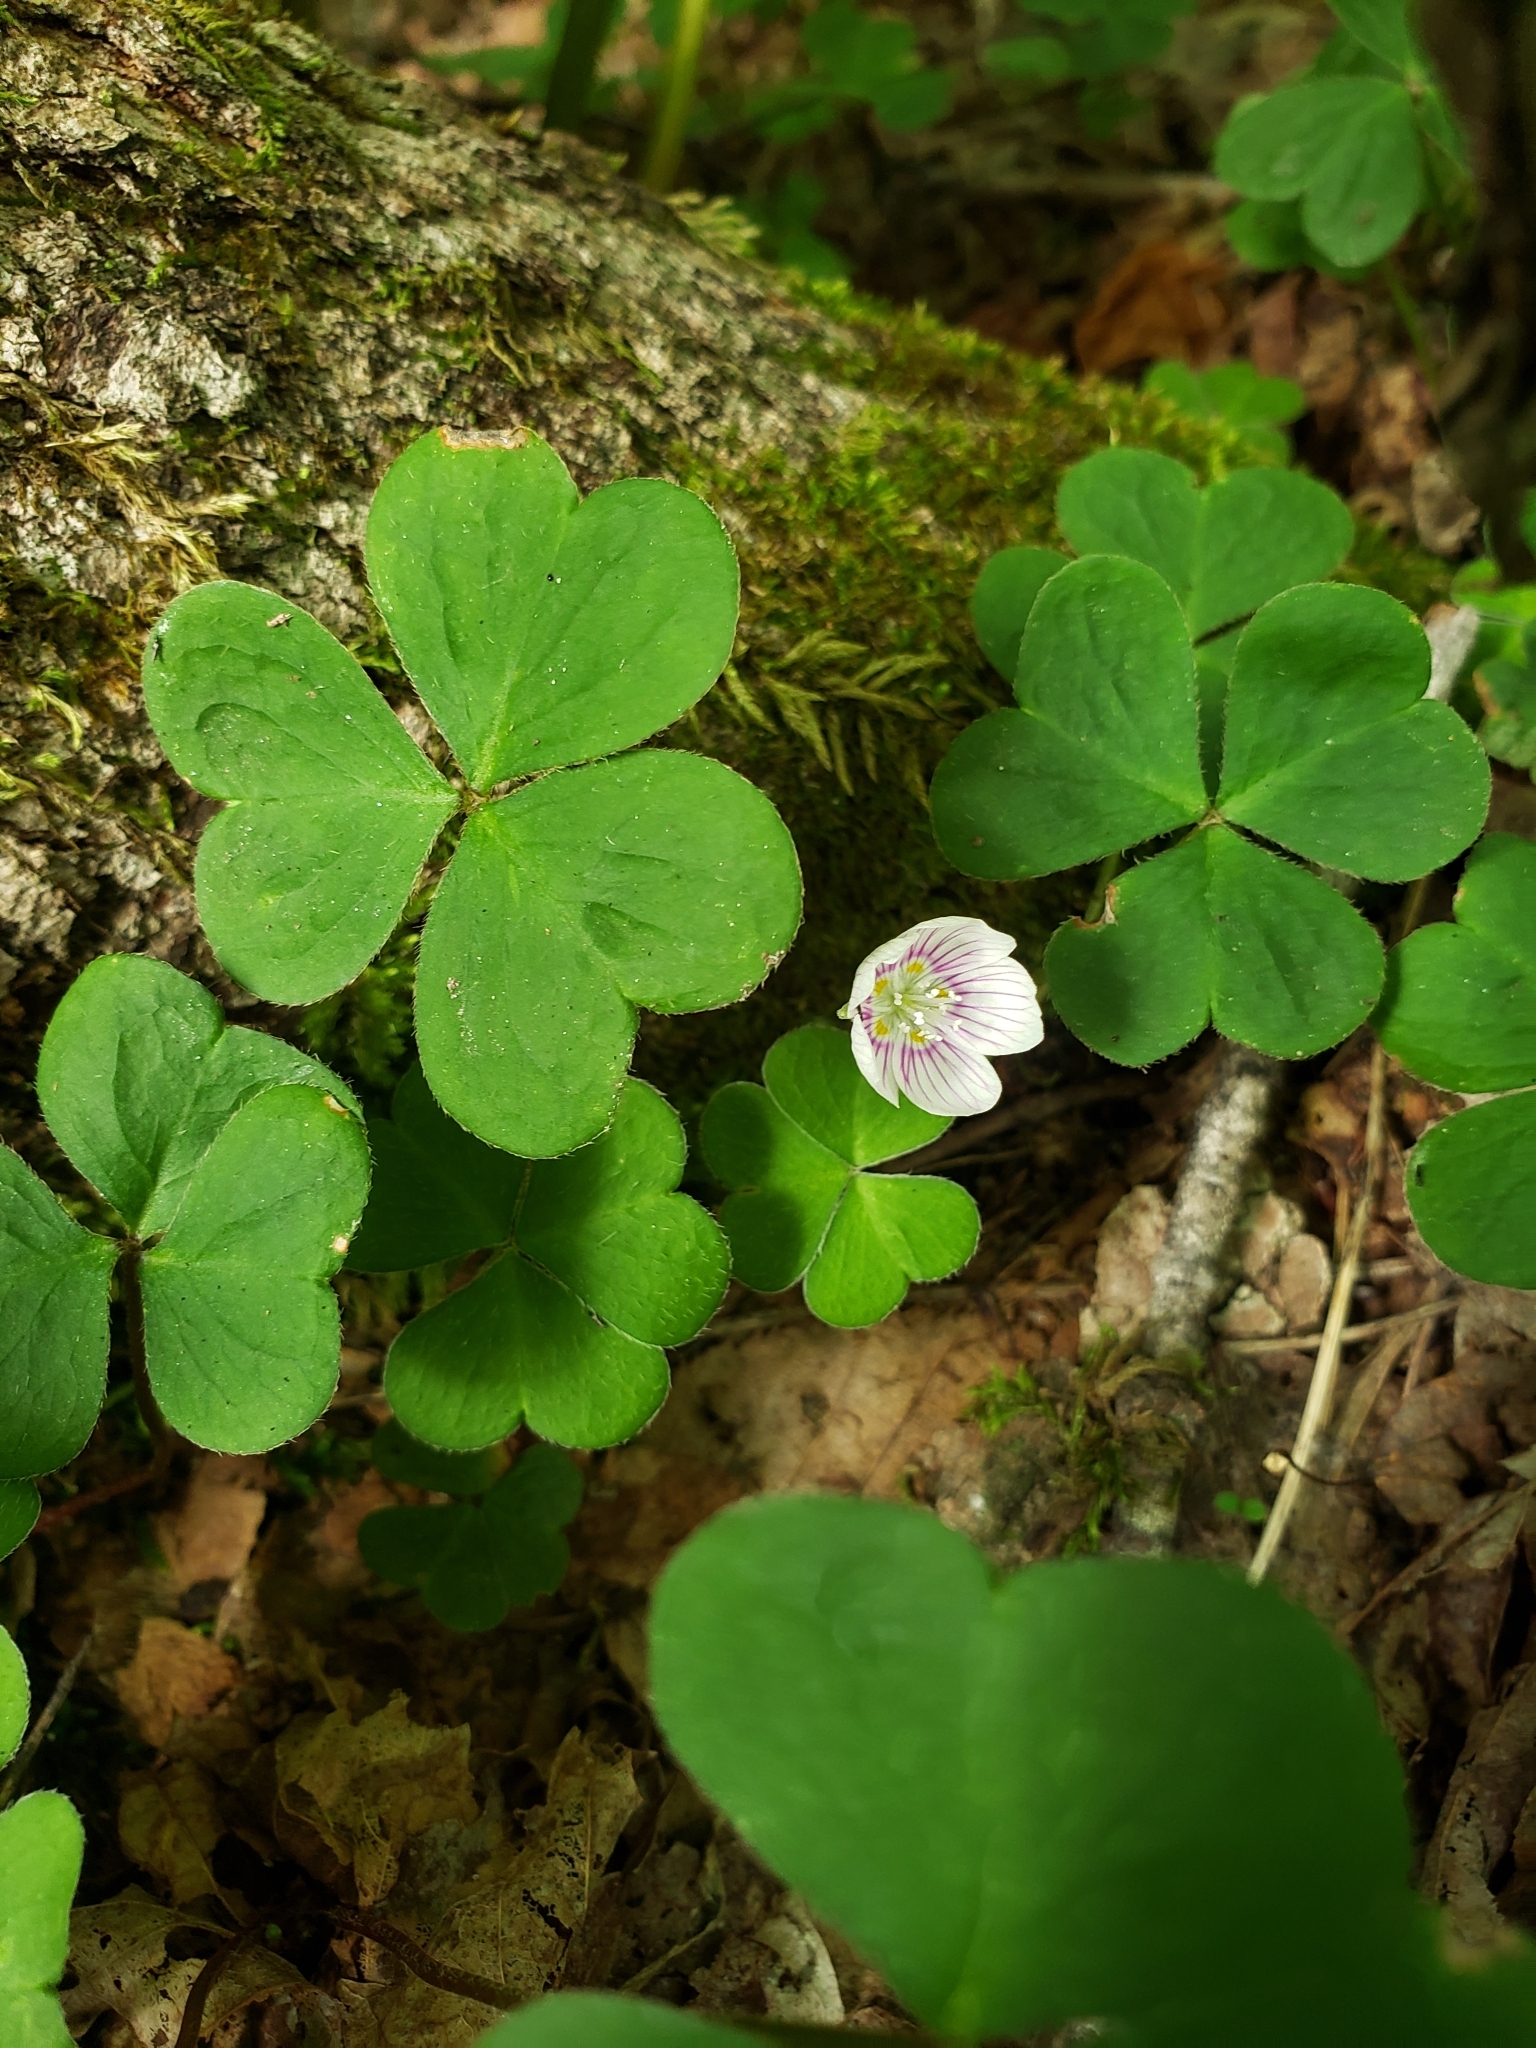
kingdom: Plantae
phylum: Tracheophyta
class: Magnoliopsida
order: Oxalidales
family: Oxalidaceae
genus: Oxalis
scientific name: Oxalis montana
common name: American wood-sorrel
